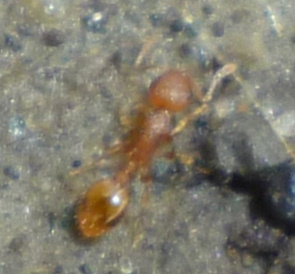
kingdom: Animalia
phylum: Arthropoda
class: Insecta
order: Hymenoptera
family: Formicidae
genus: Temnothorax
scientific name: Temnothorax curvispinosus
